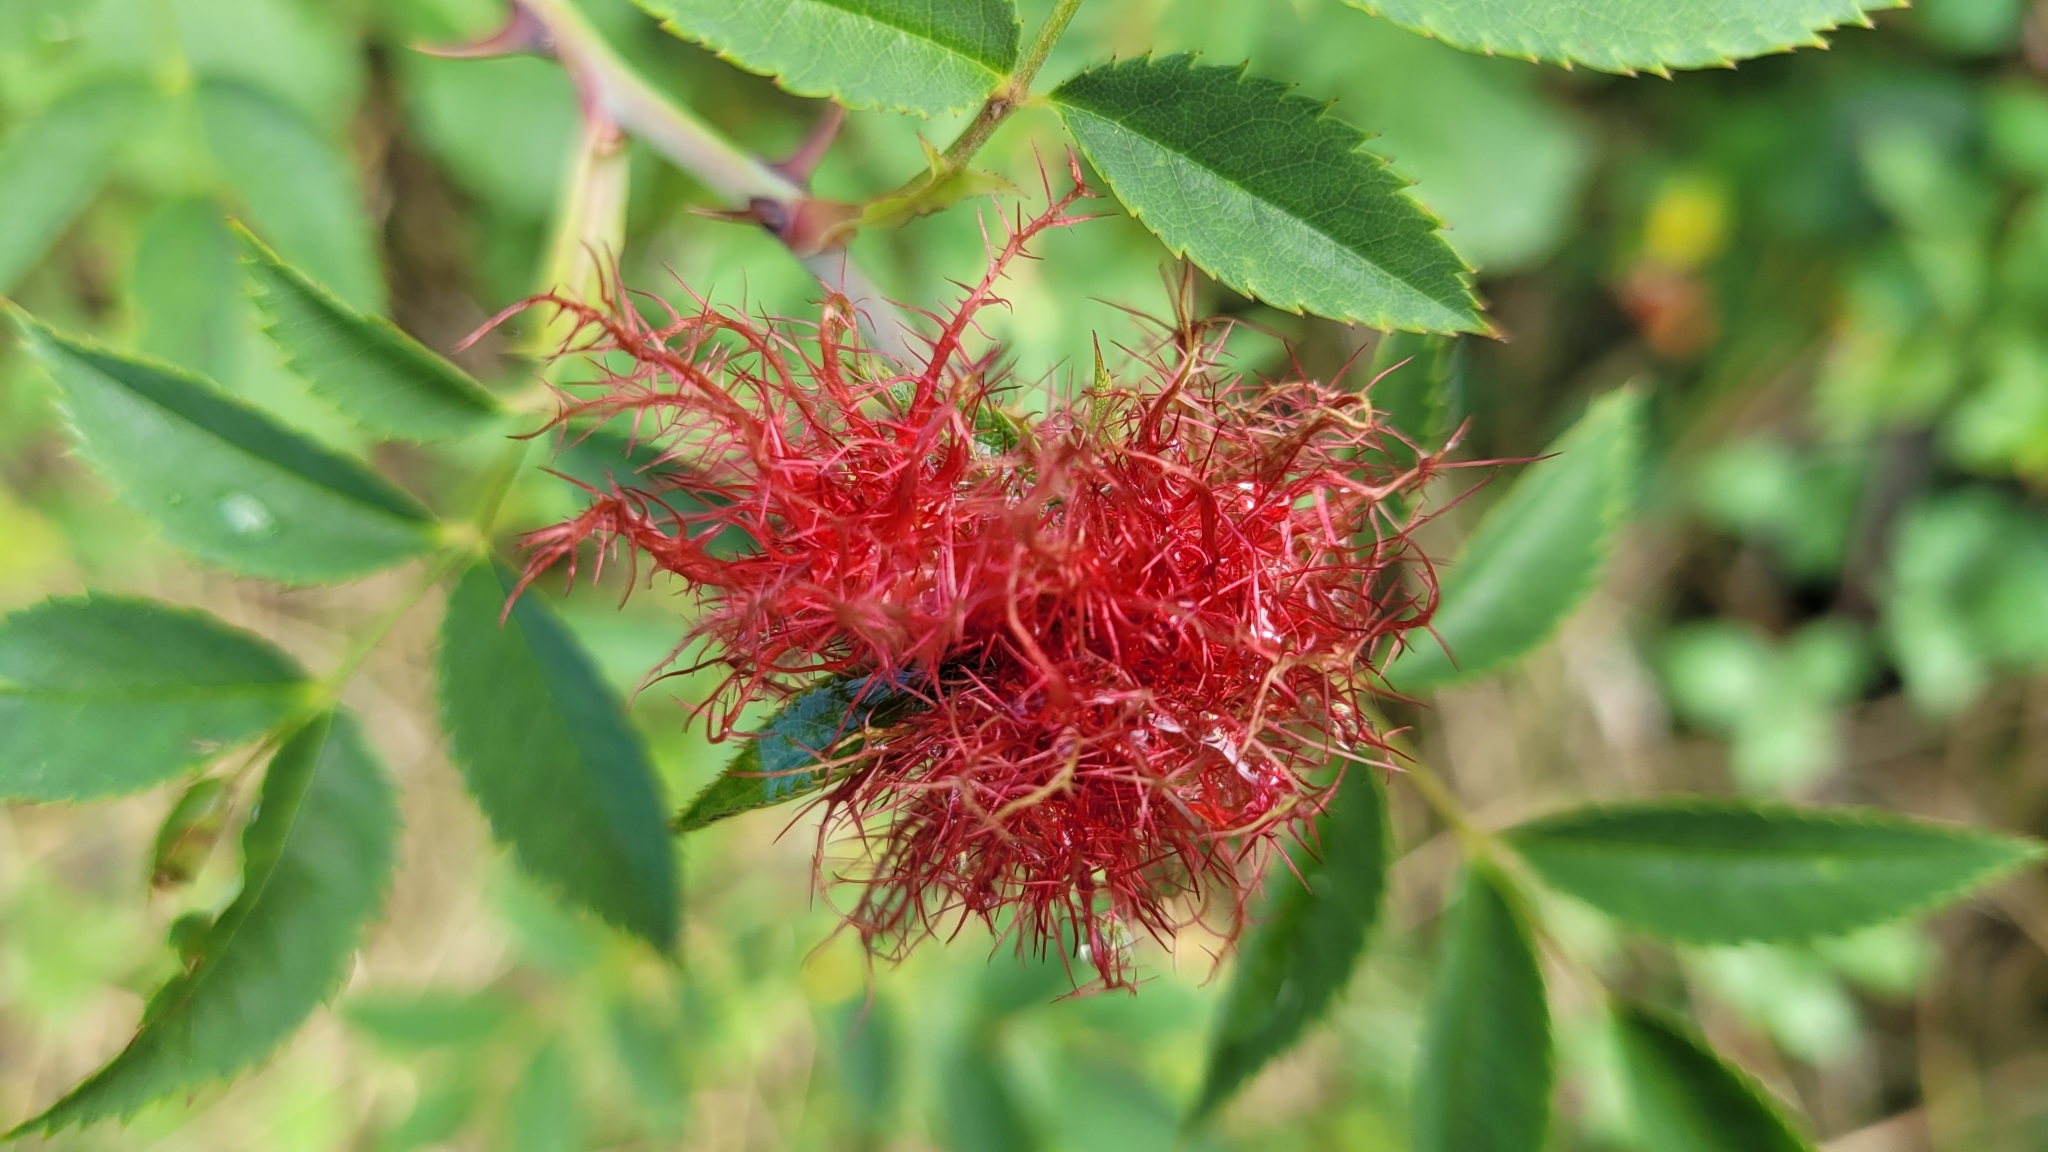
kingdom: Animalia
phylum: Arthropoda
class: Insecta
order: Hymenoptera
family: Cynipidae
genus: Diplolepis
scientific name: Diplolepis rosae
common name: Bedeguar gall
